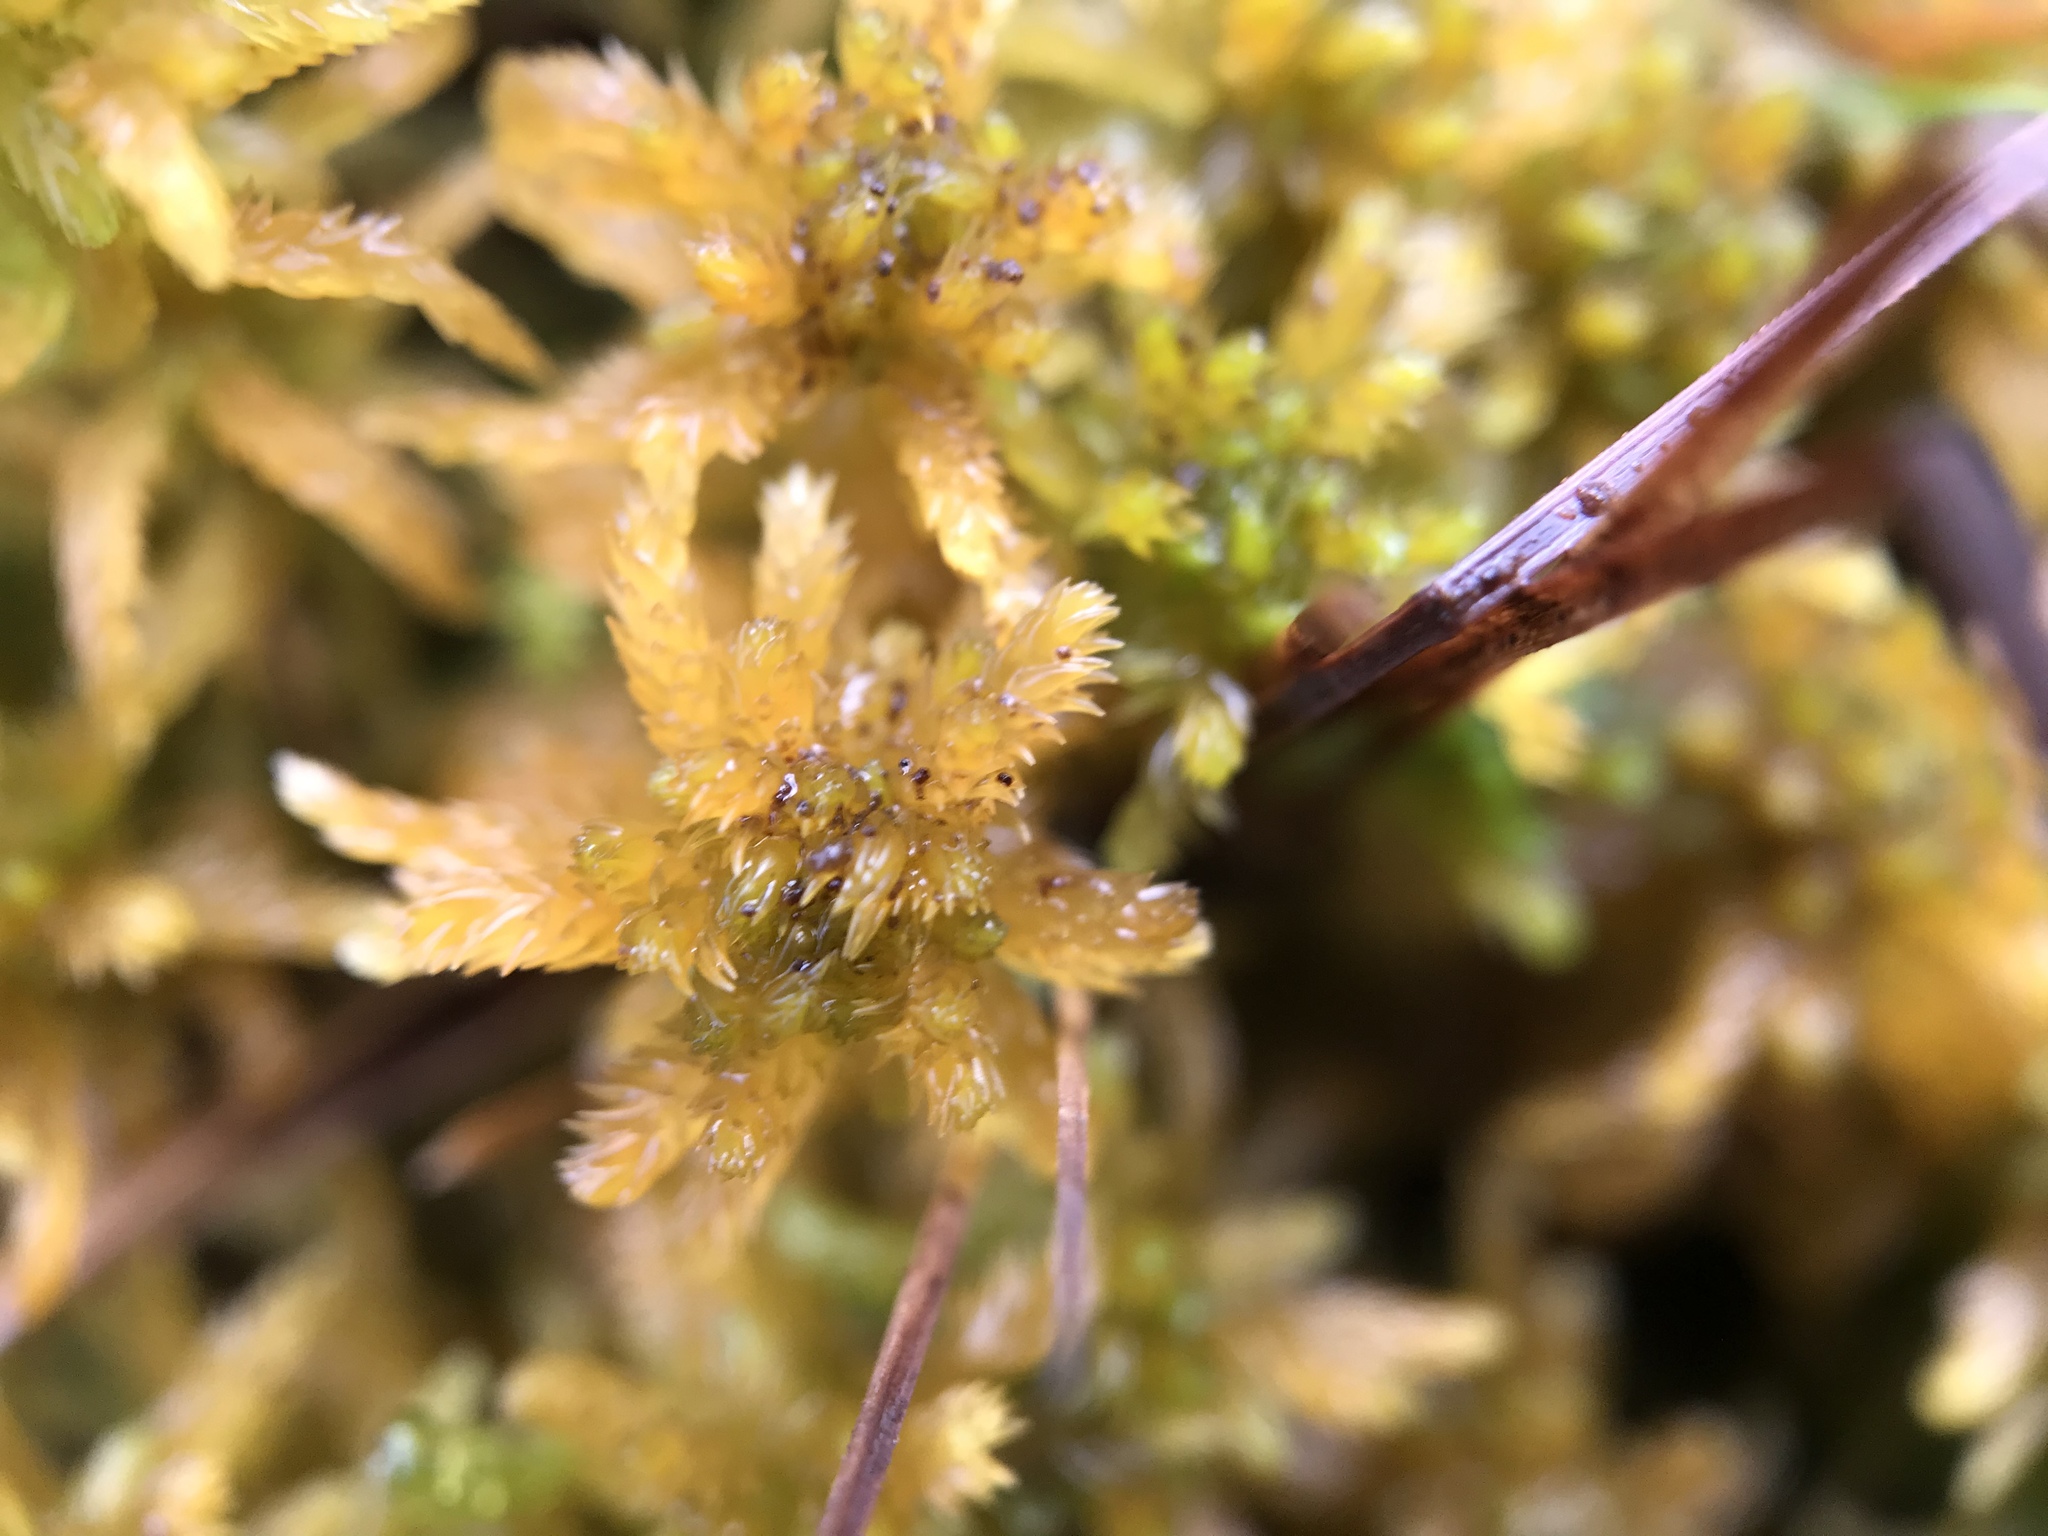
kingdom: Plantae
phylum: Bryophyta
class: Sphagnopsida
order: Sphagnales
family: Sphagnaceae
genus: Sphagnum
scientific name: Sphagnum angustifolium
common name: Narrow-leaved peat moss
